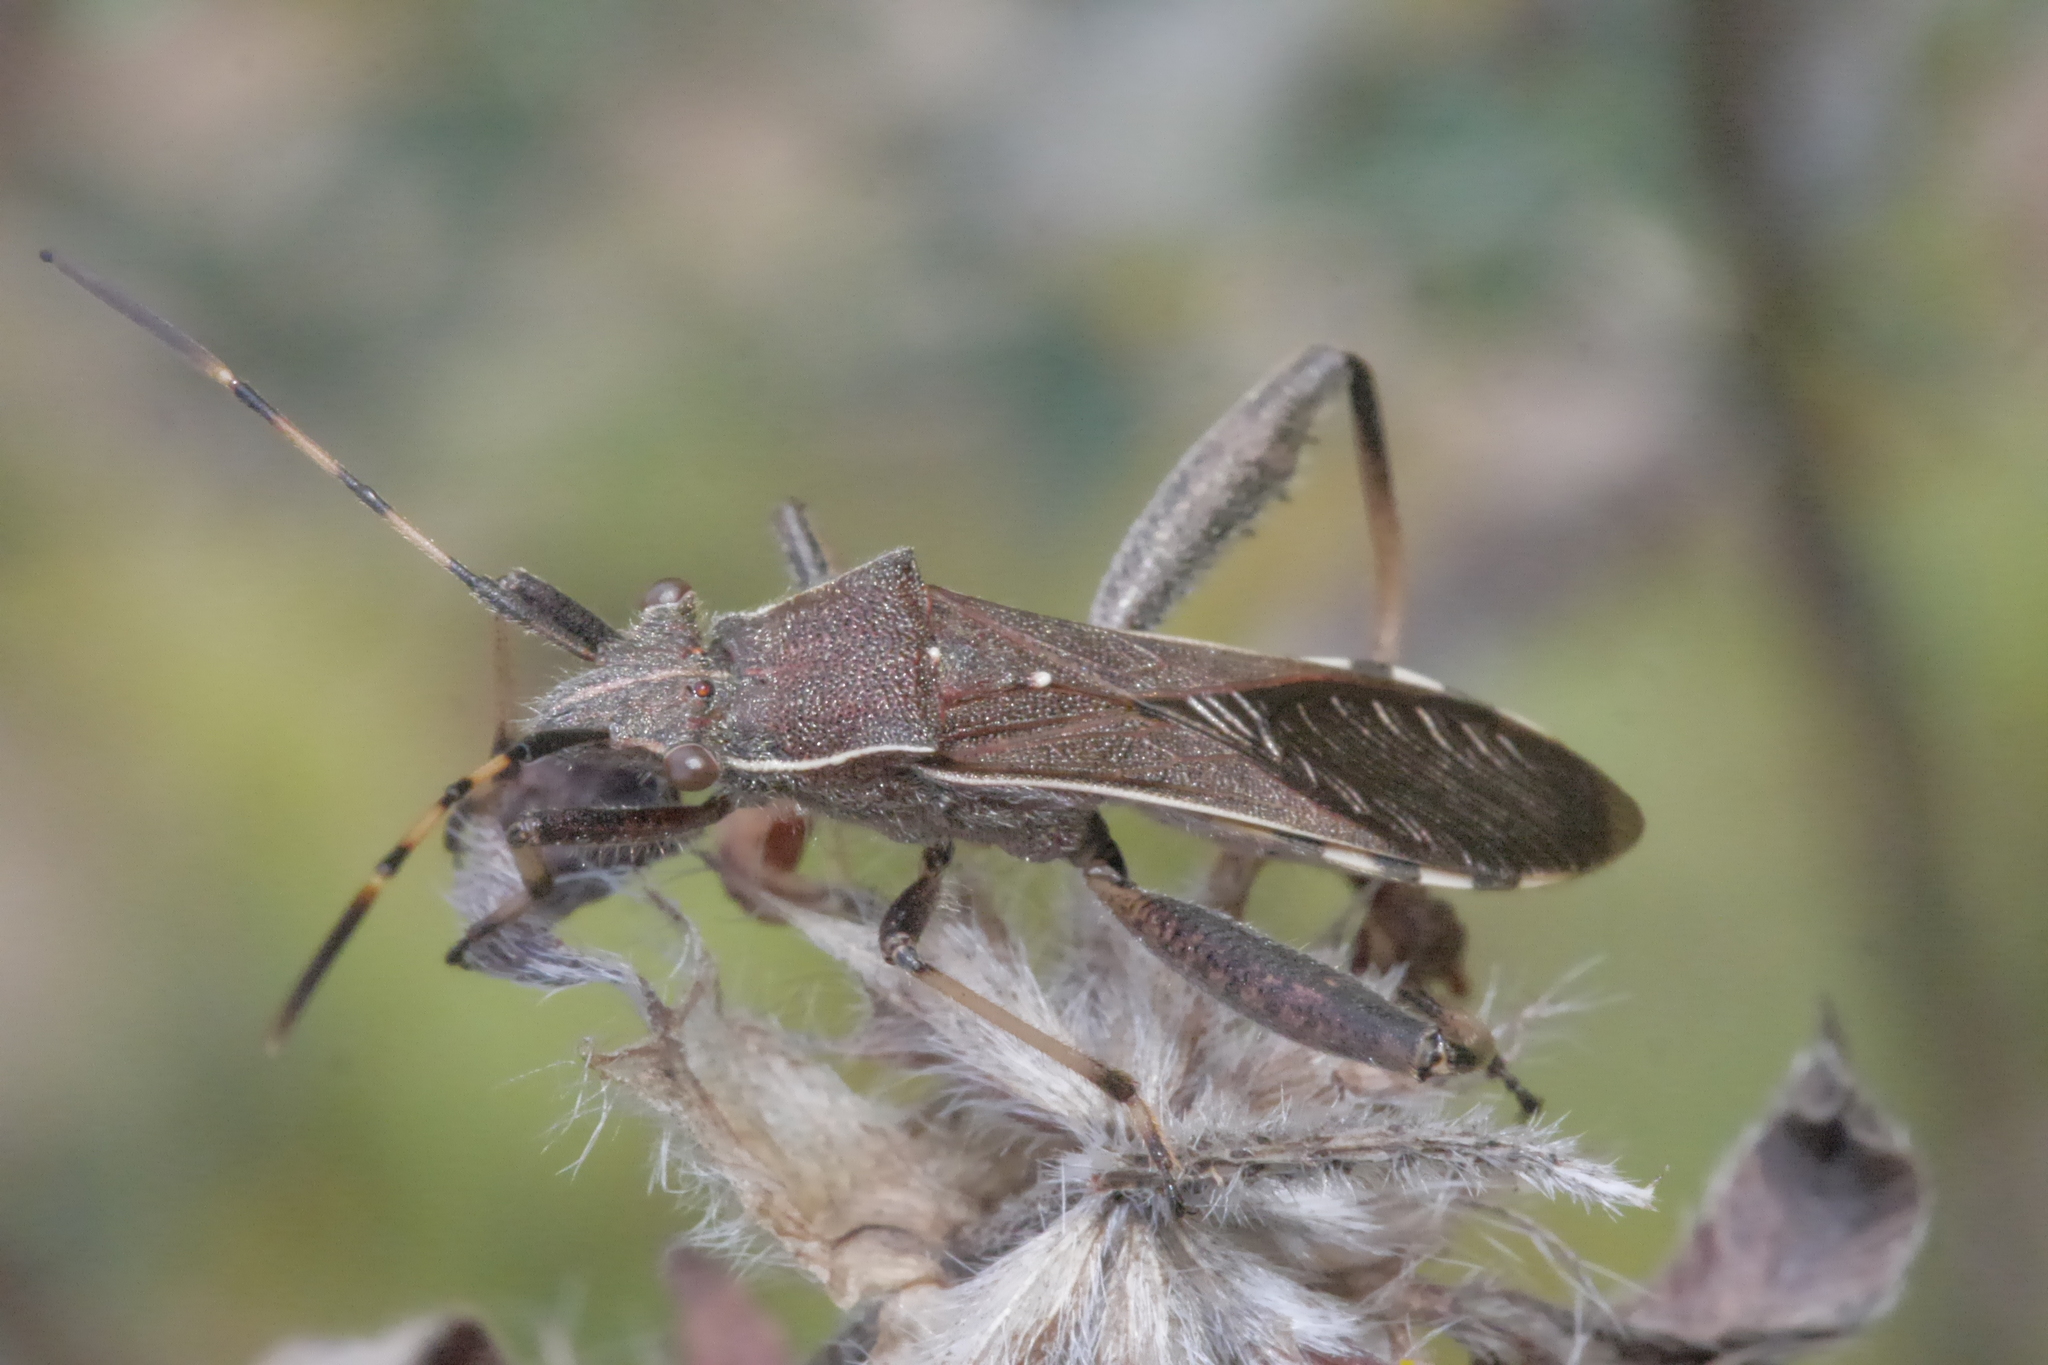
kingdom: Animalia
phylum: Arthropoda
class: Insecta
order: Hemiptera
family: Alydidae
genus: Camptopus
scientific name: Camptopus lateralis
